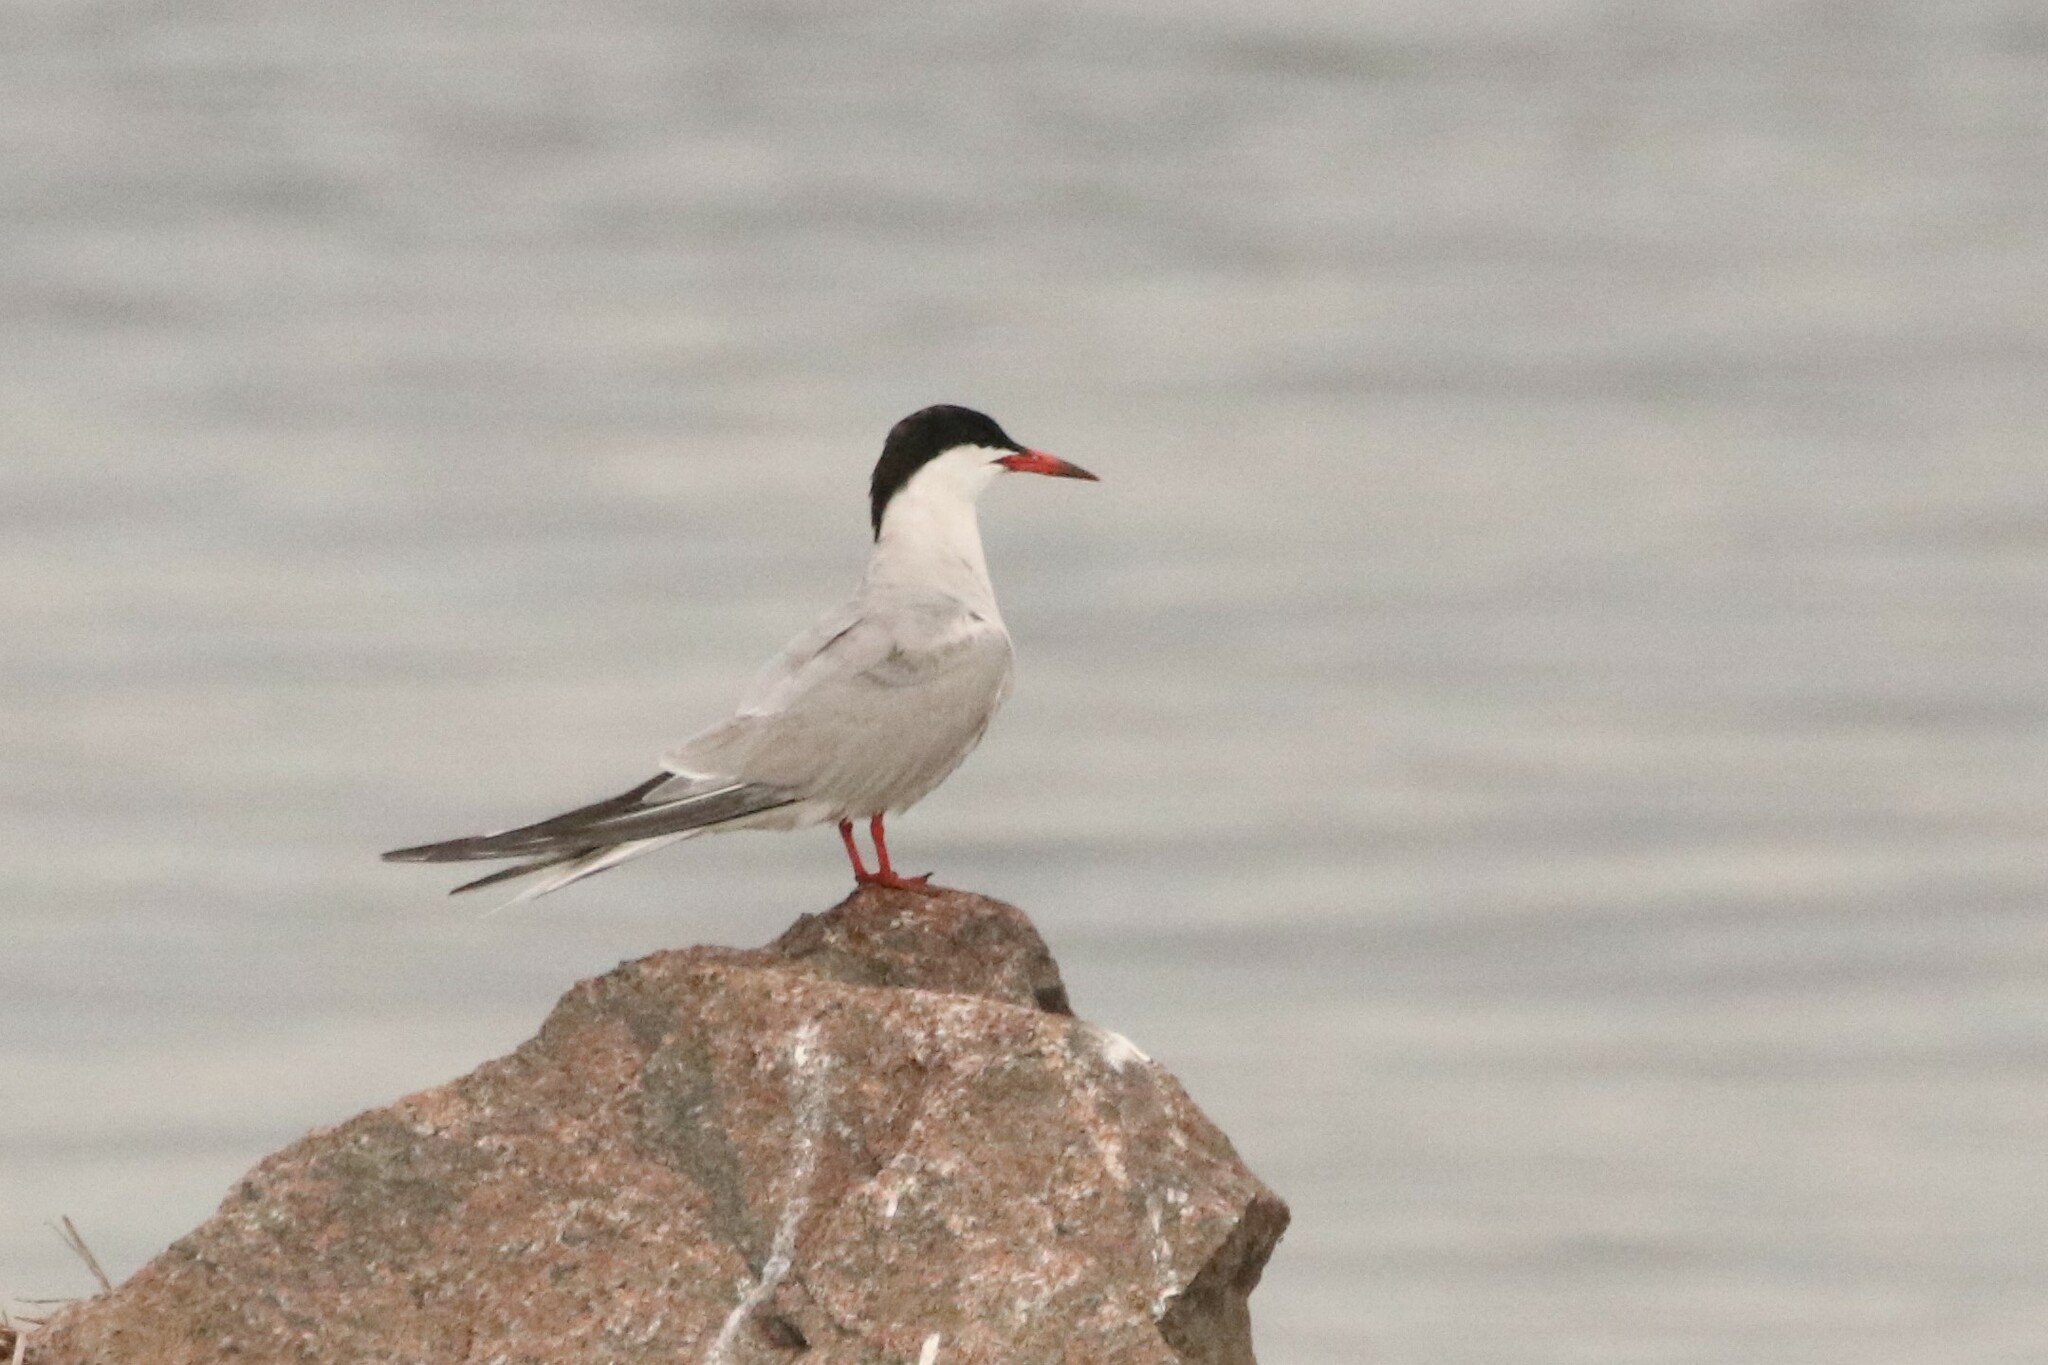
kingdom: Animalia
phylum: Chordata
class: Aves
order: Charadriiformes
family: Laridae
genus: Sterna
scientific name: Sterna hirundo
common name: Common tern
